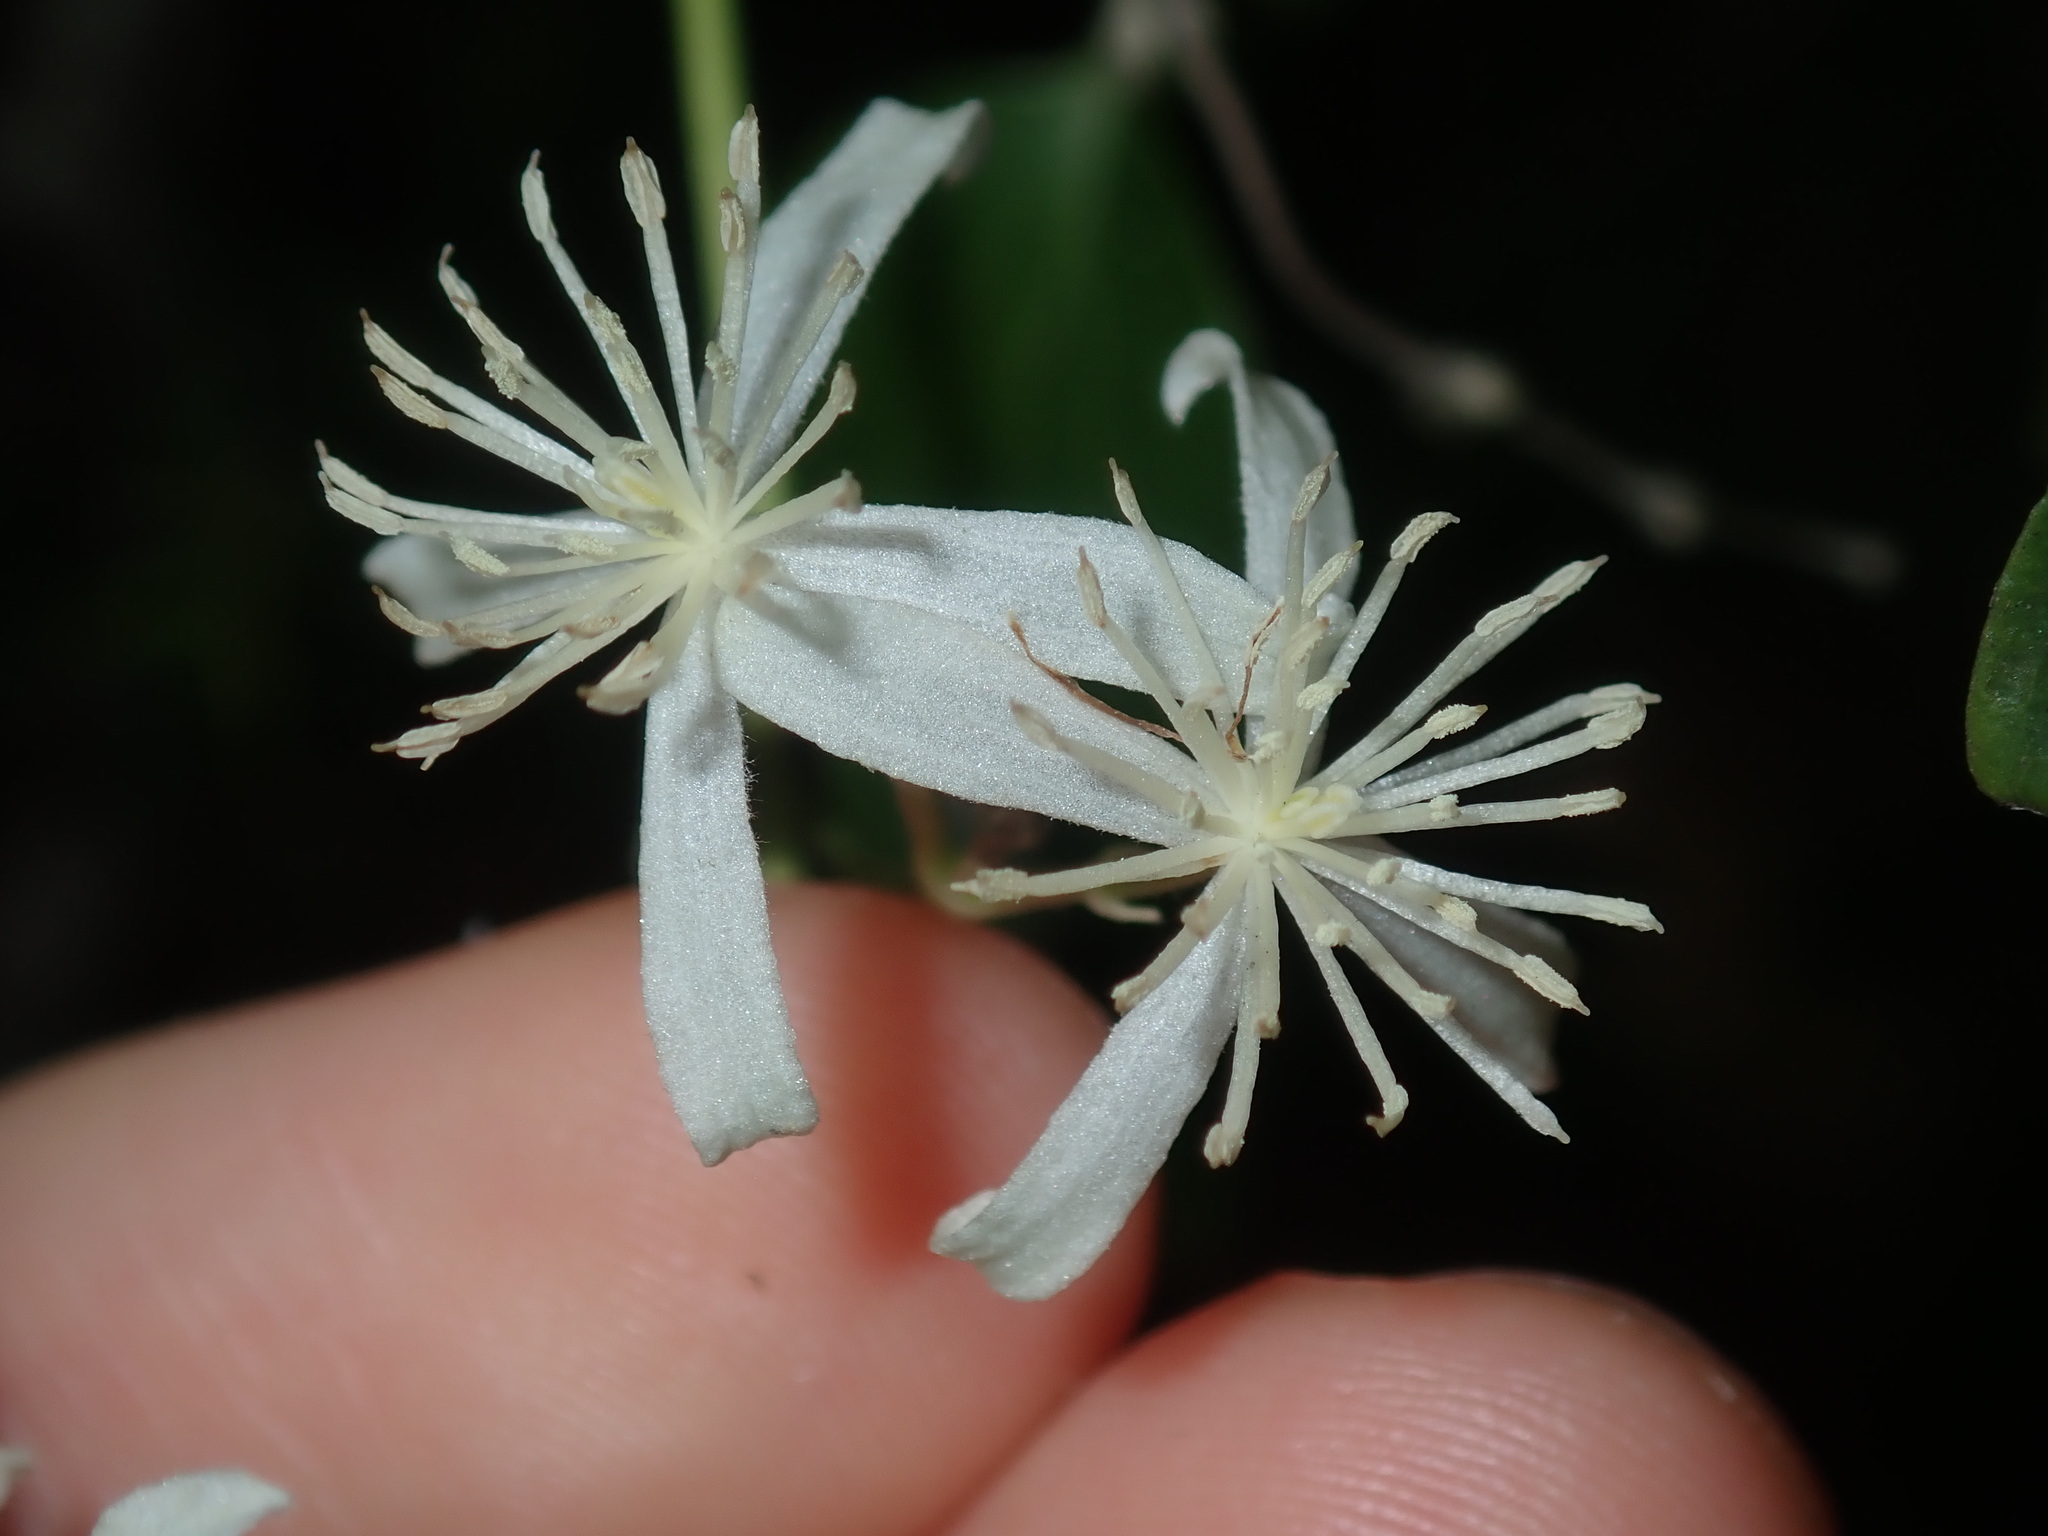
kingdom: Plantae
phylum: Tracheophyta
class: Magnoliopsida
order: Ranunculales
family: Ranunculaceae
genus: Clematis
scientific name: Clematis glycinoides
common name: Forest clematis
